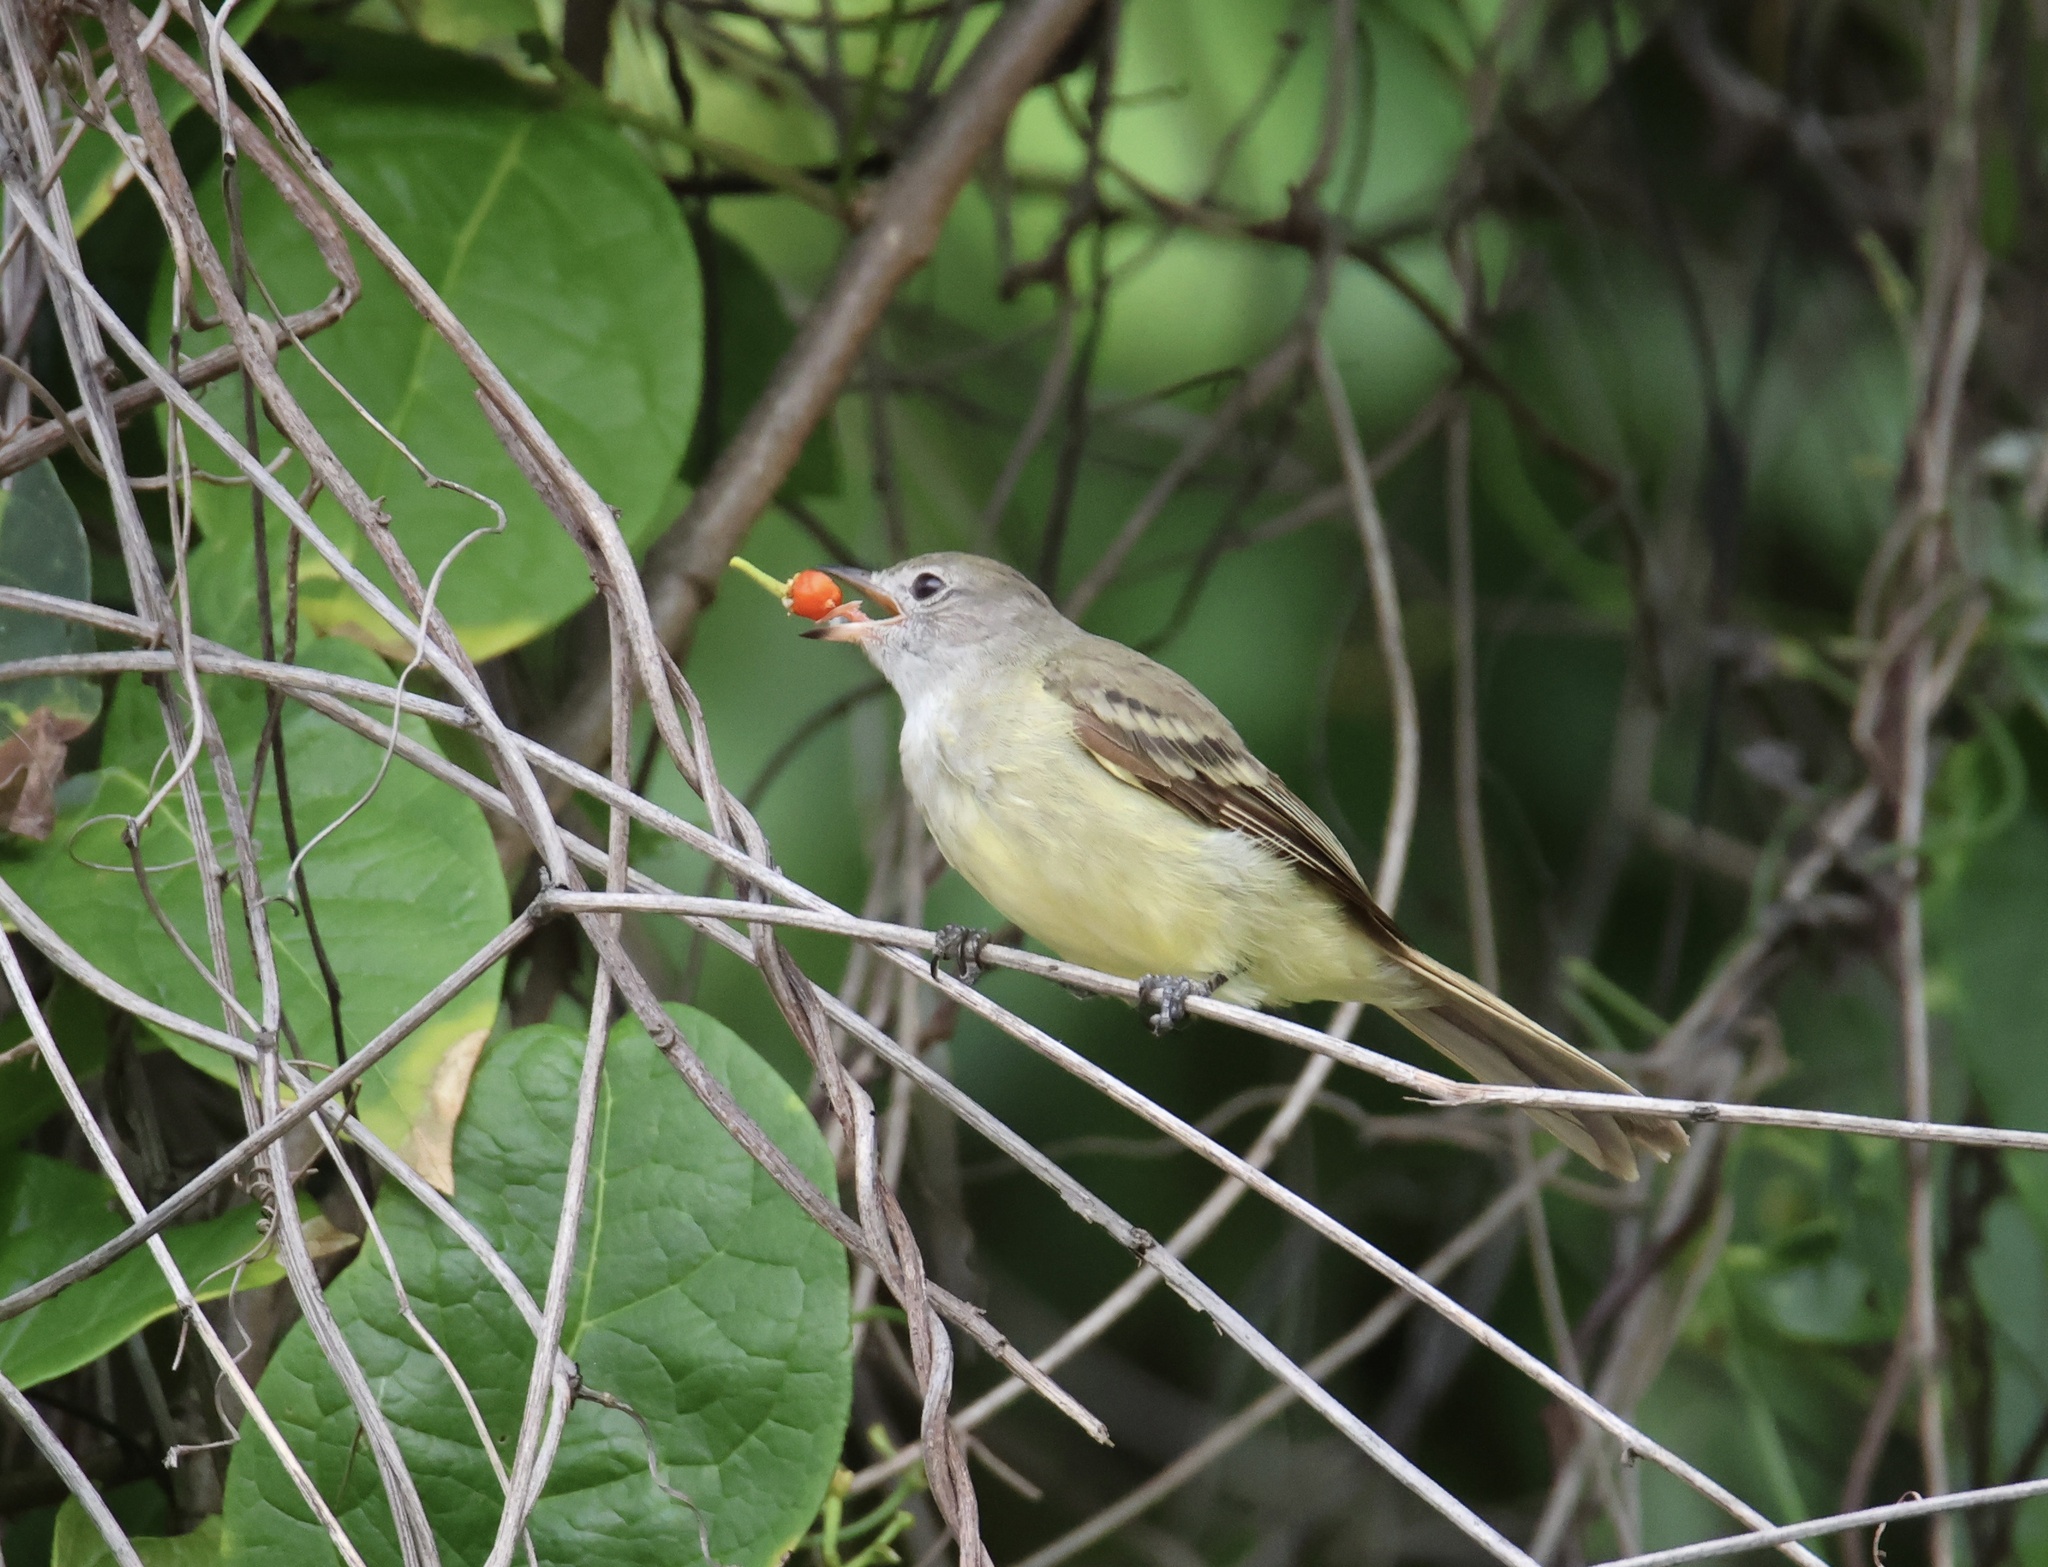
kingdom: Animalia
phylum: Chordata
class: Aves
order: Passeriformes
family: Tyrannidae
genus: Elaenia
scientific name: Elaenia flavogaster
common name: Yellow-bellied elaenia
